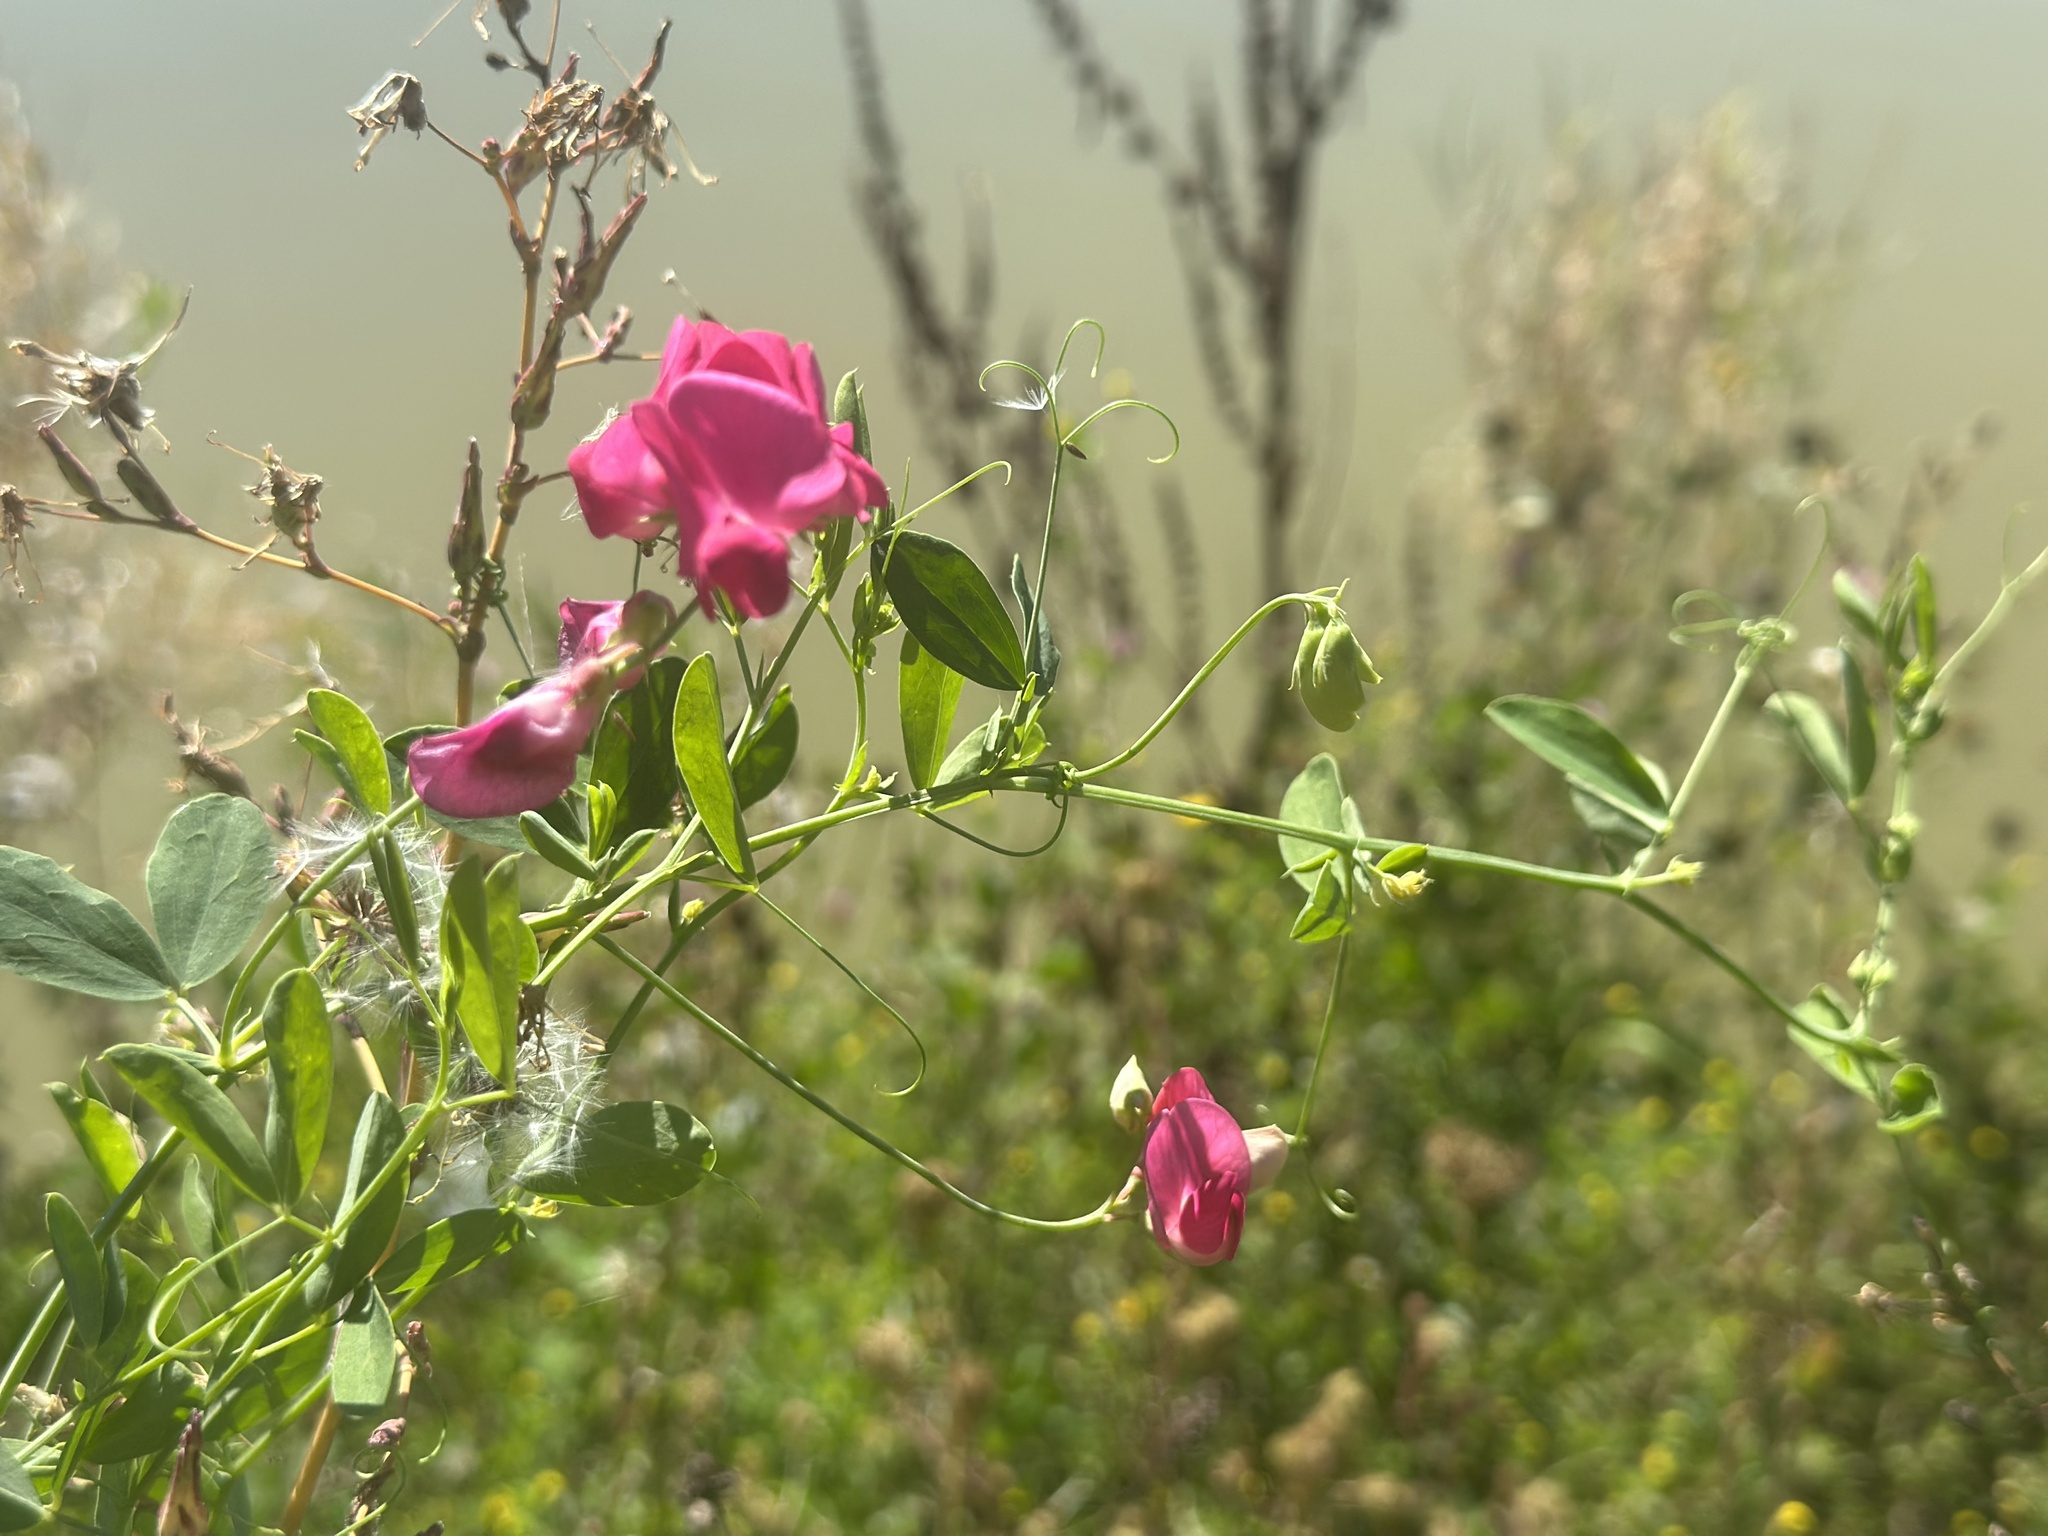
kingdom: Plantae
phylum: Tracheophyta
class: Magnoliopsida
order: Fabales
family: Fabaceae
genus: Lathyrus
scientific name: Lathyrus tuberosus
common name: Tuberous pea
